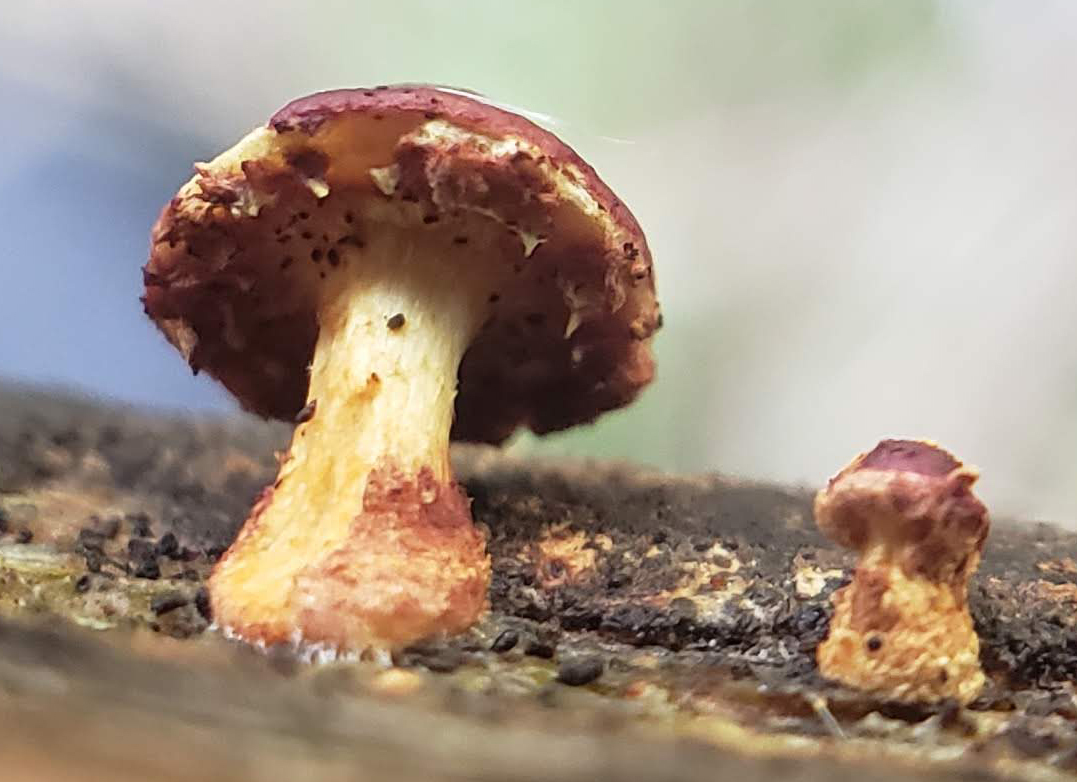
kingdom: Fungi
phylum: Basidiomycota
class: Agaricomycetes
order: Agaricales
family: Strophariaceae
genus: Pholiota
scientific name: Pholiota polychroa
